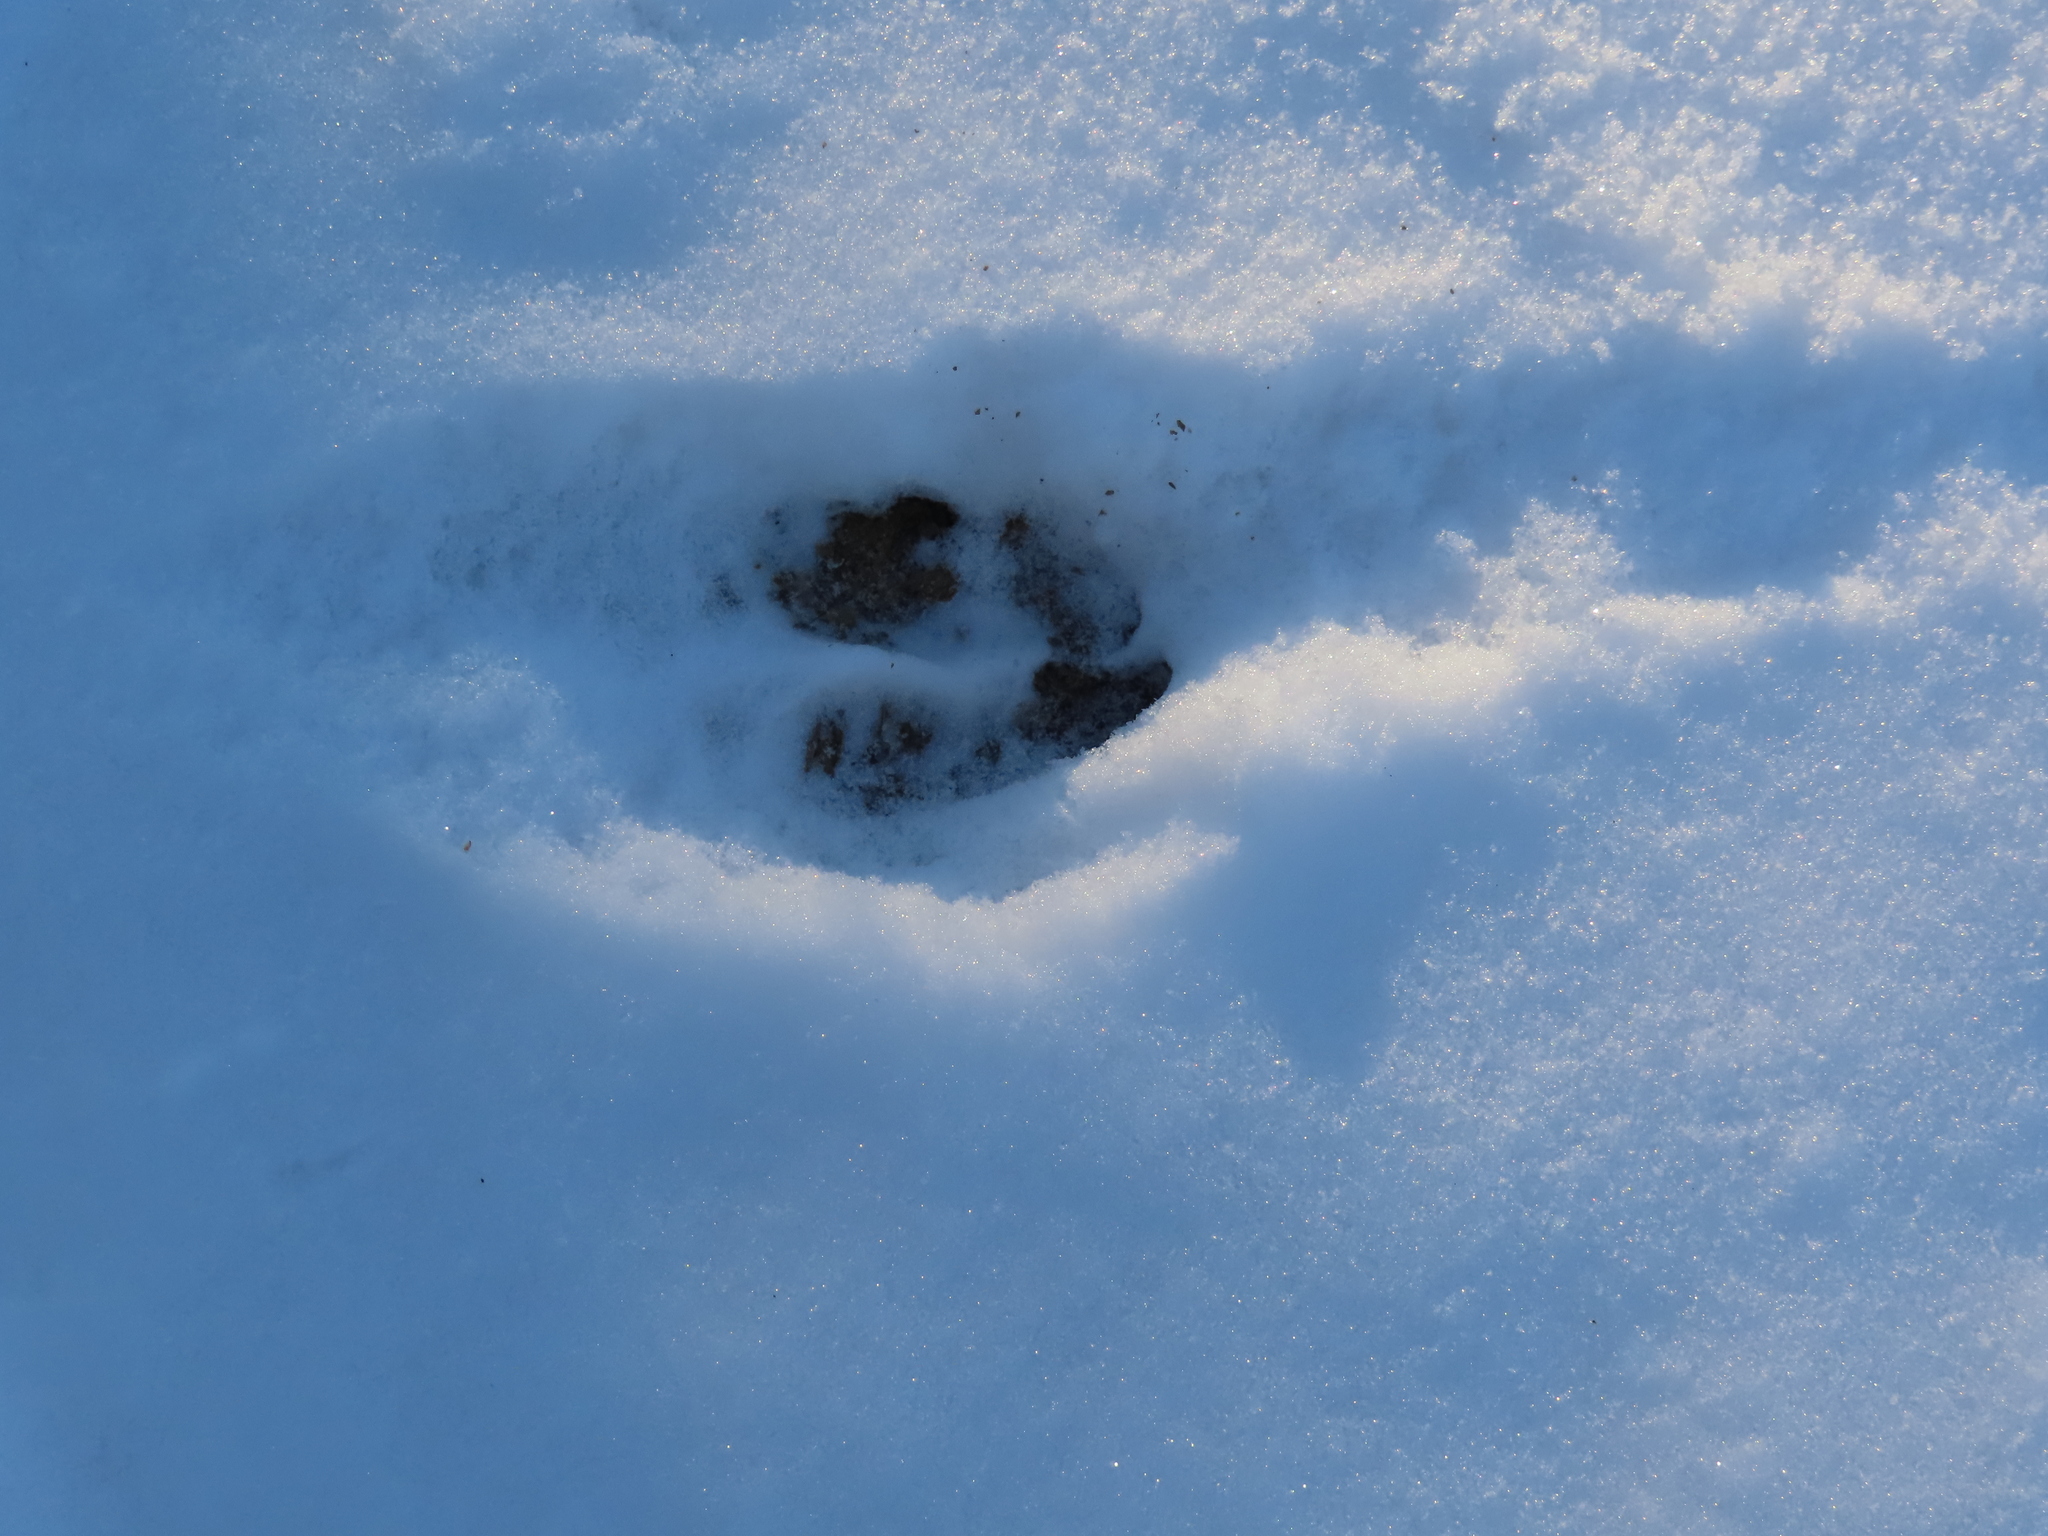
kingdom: Animalia
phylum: Chordata
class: Mammalia
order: Artiodactyla
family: Cervidae
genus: Odocoileus
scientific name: Odocoileus virginianus
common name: White-tailed deer
